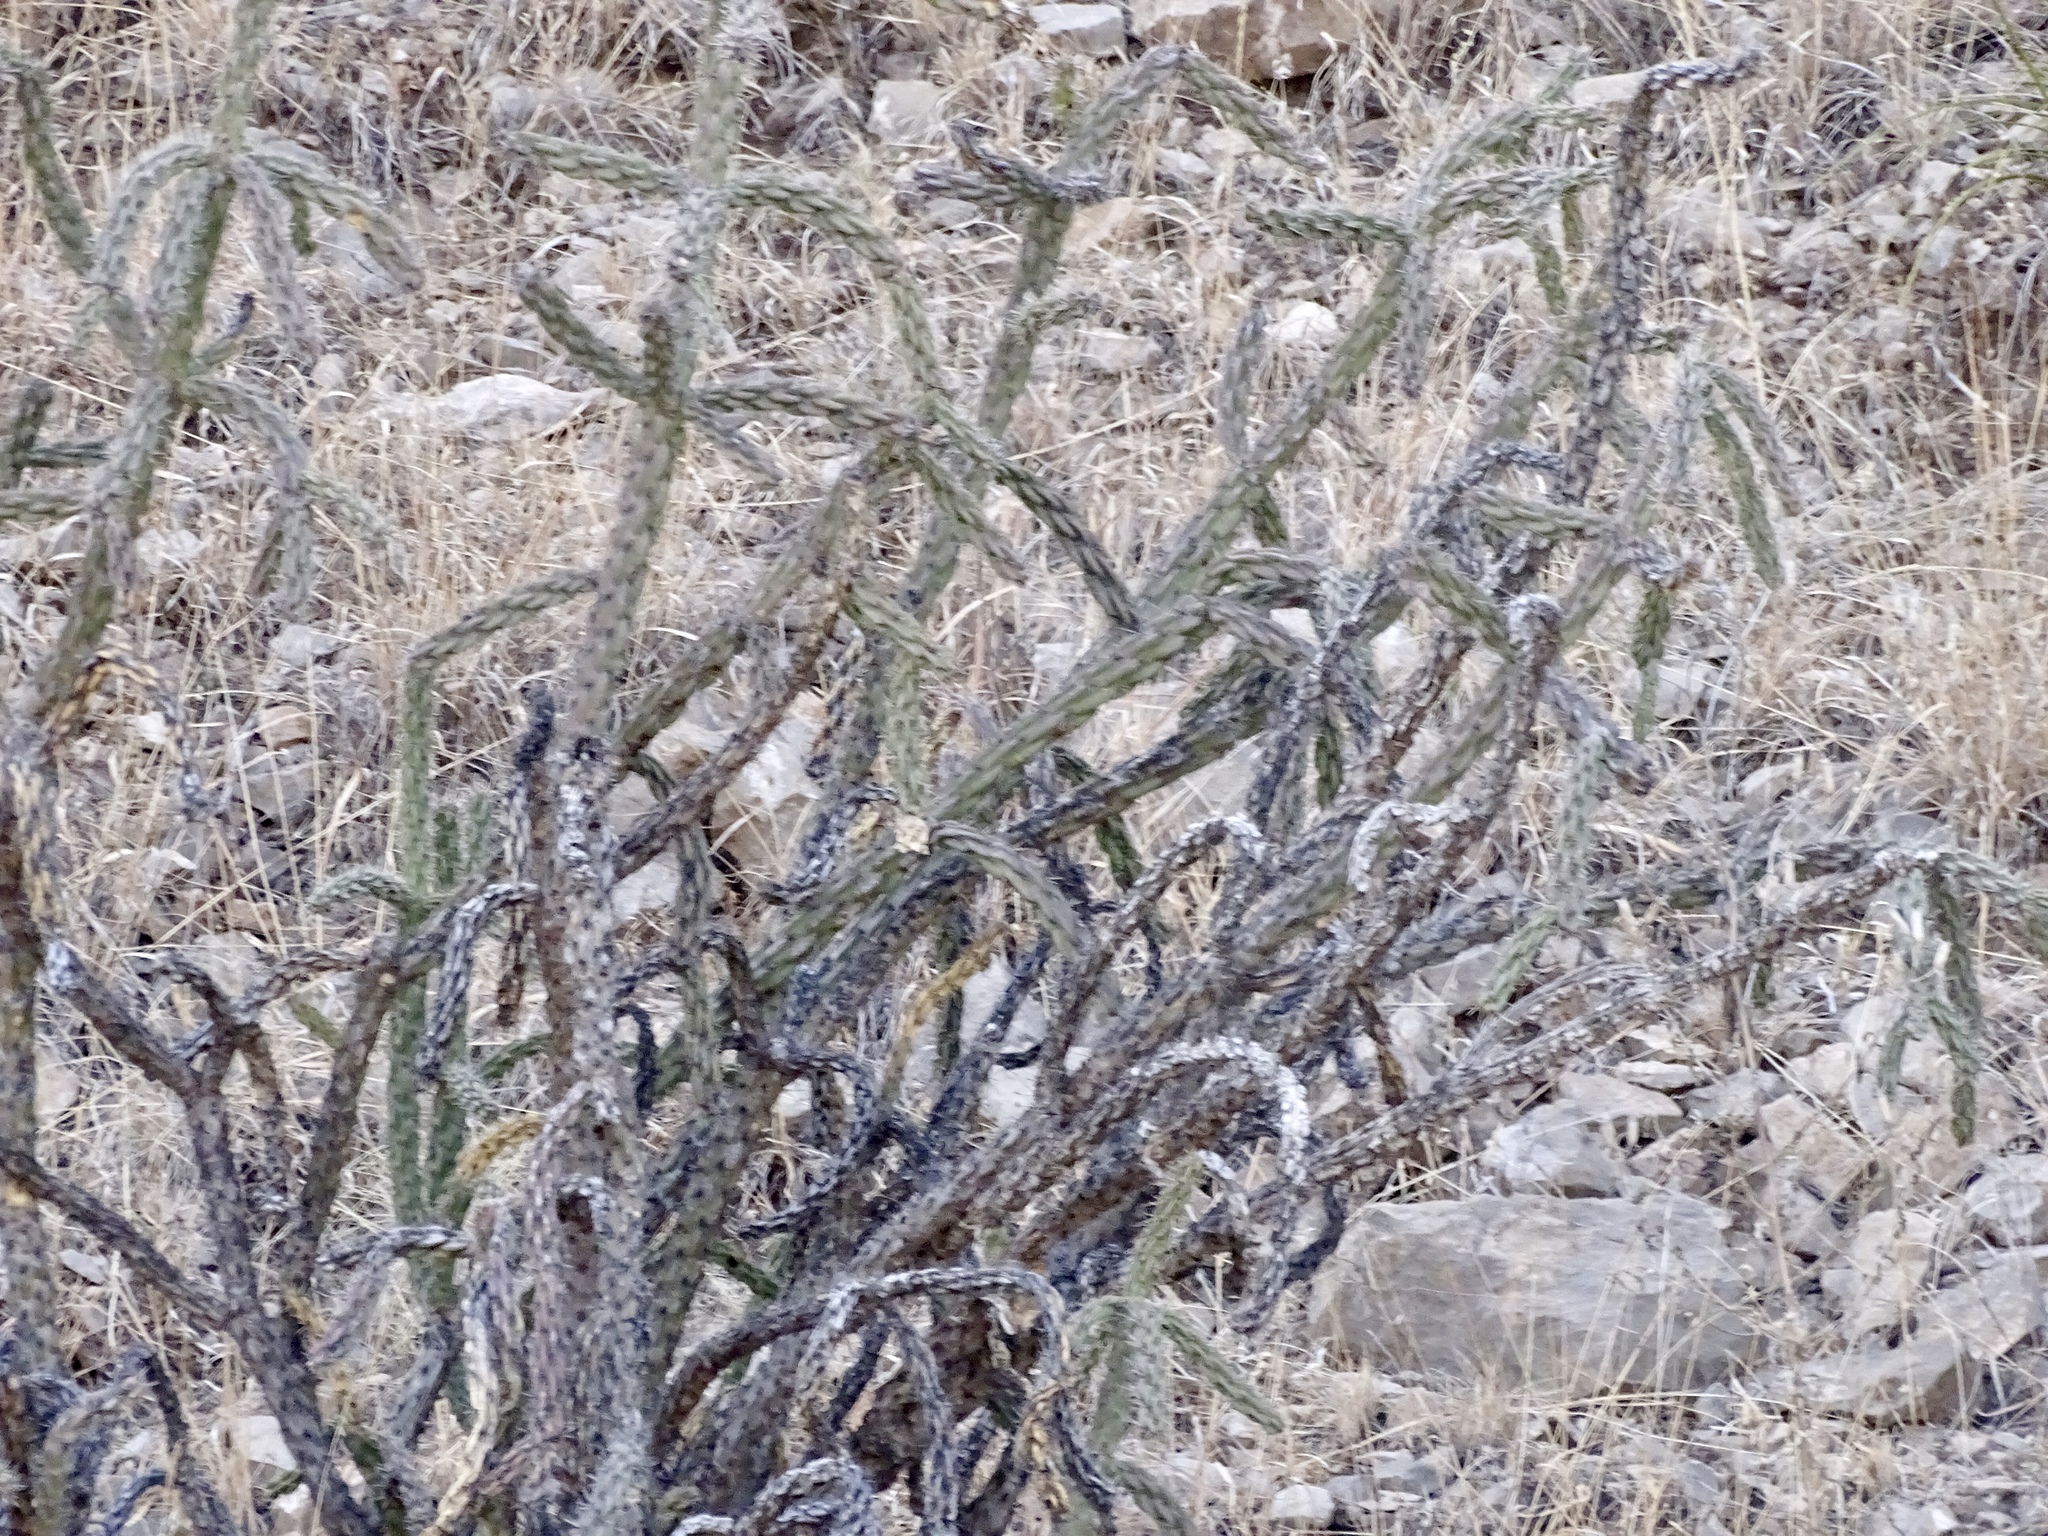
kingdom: Plantae
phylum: Tracheophyta
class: Magnoliopsida
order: Caryophyllales
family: Cactaceae
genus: Cylindropuntia
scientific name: Cylindropuntia imbricata
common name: Candelabrum cactus
